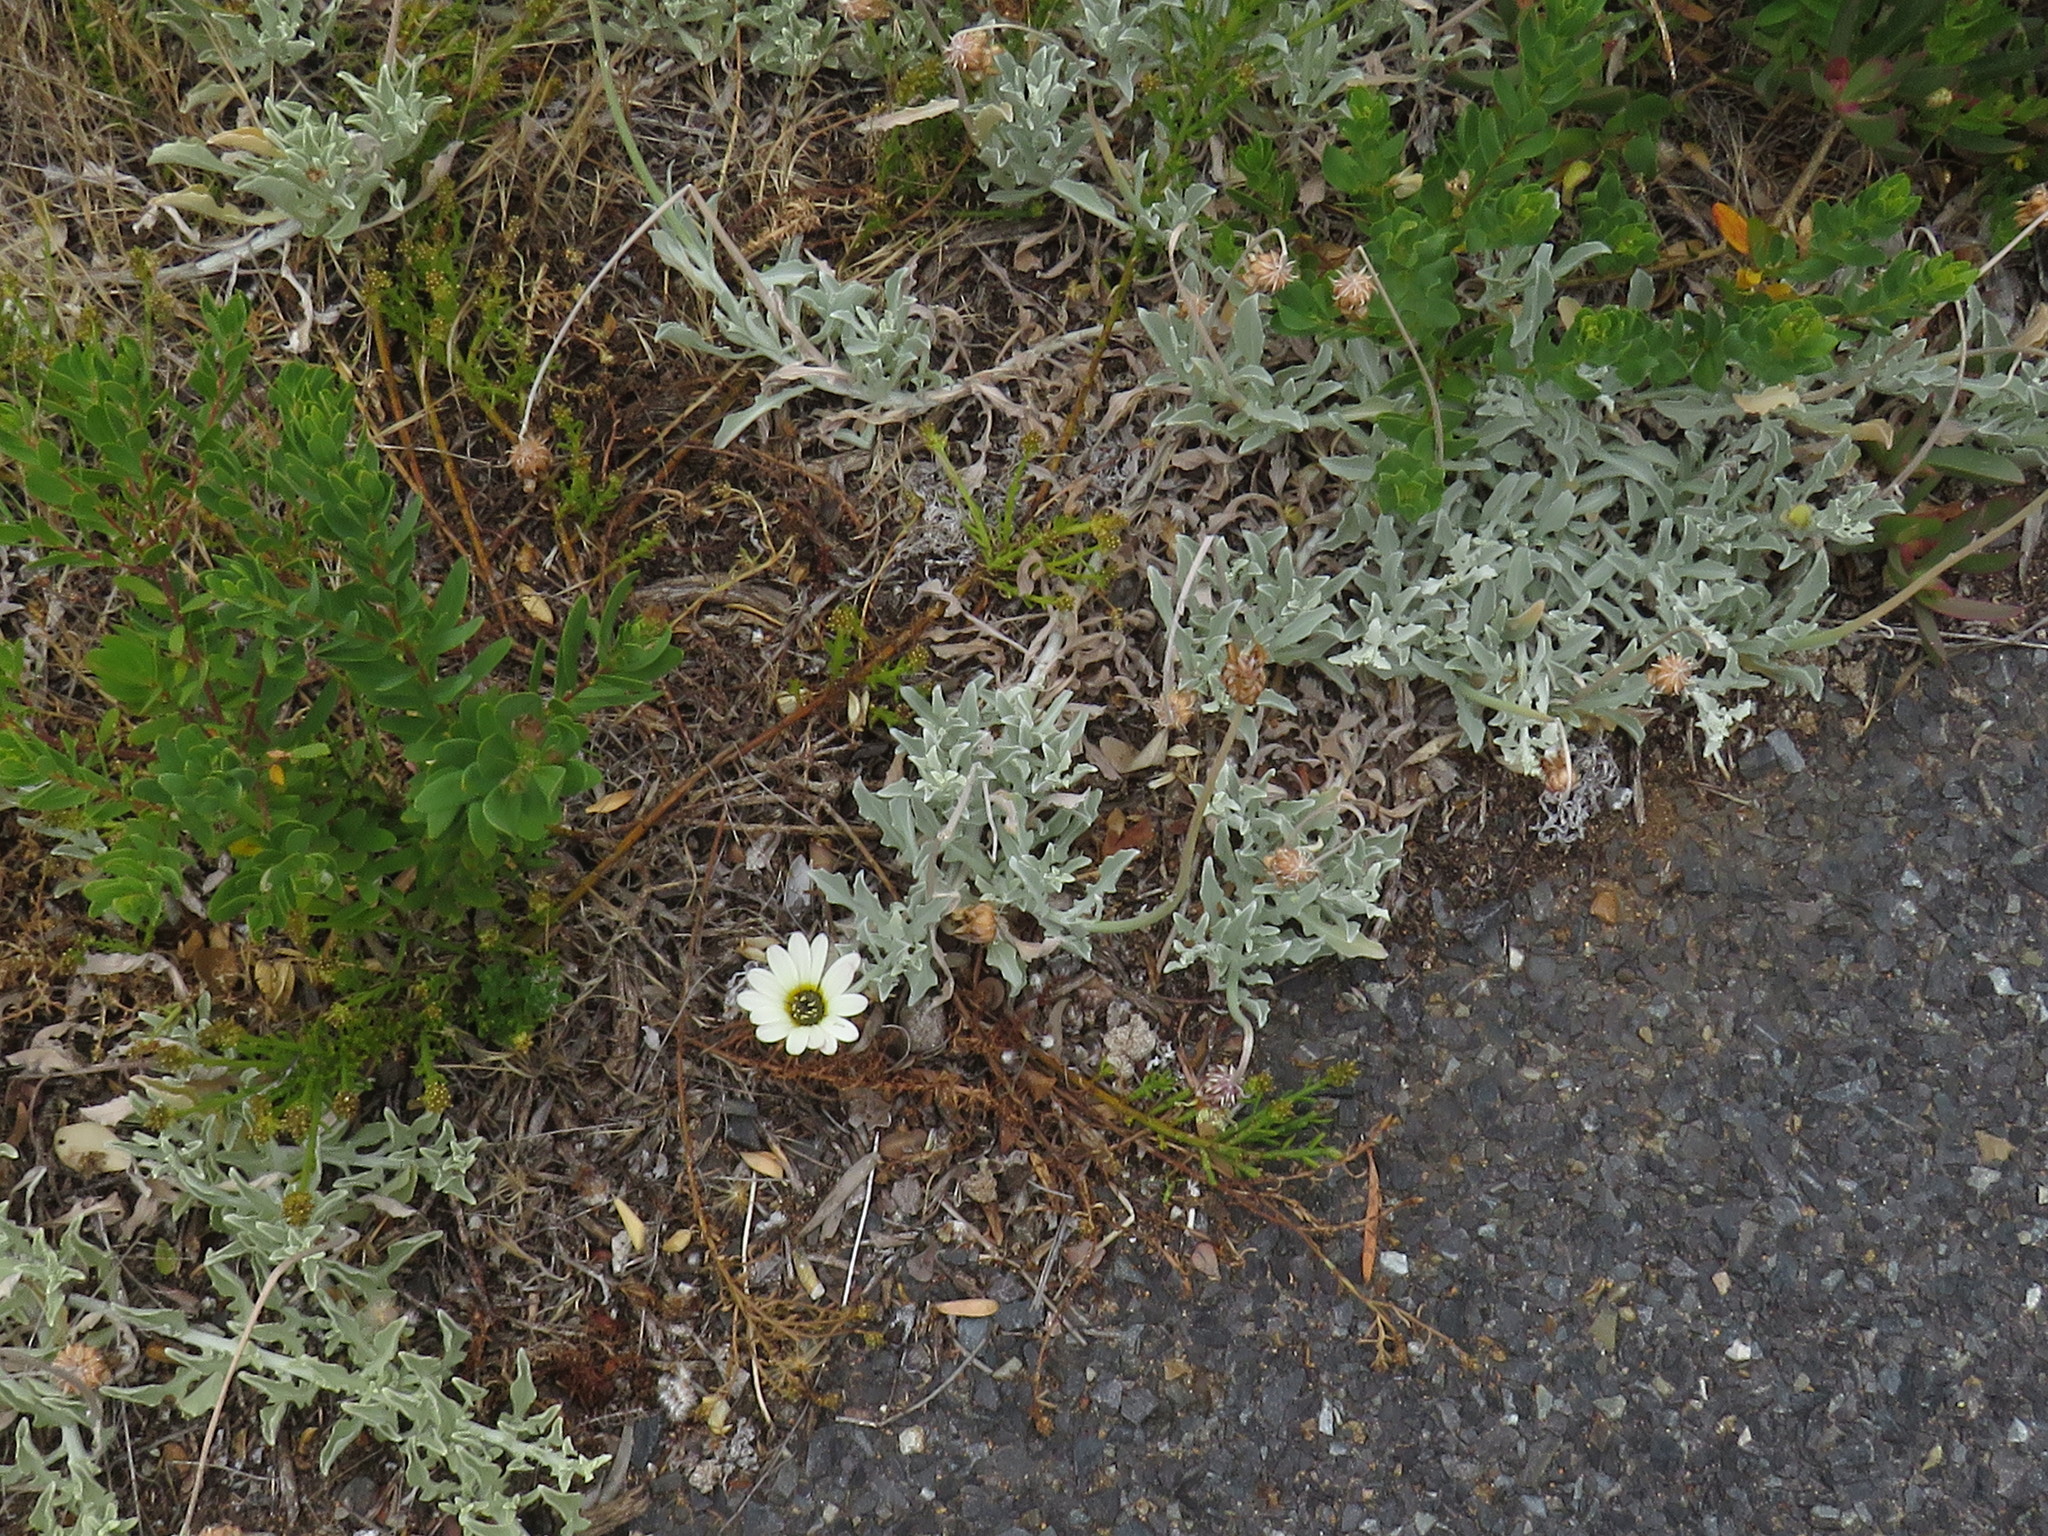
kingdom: Plantae
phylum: Tracheophyta
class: Magnoliopsida
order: Asterales
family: Asteraceae
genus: Arctotis
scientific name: Arctotis stoechadifolia
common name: African daisy
